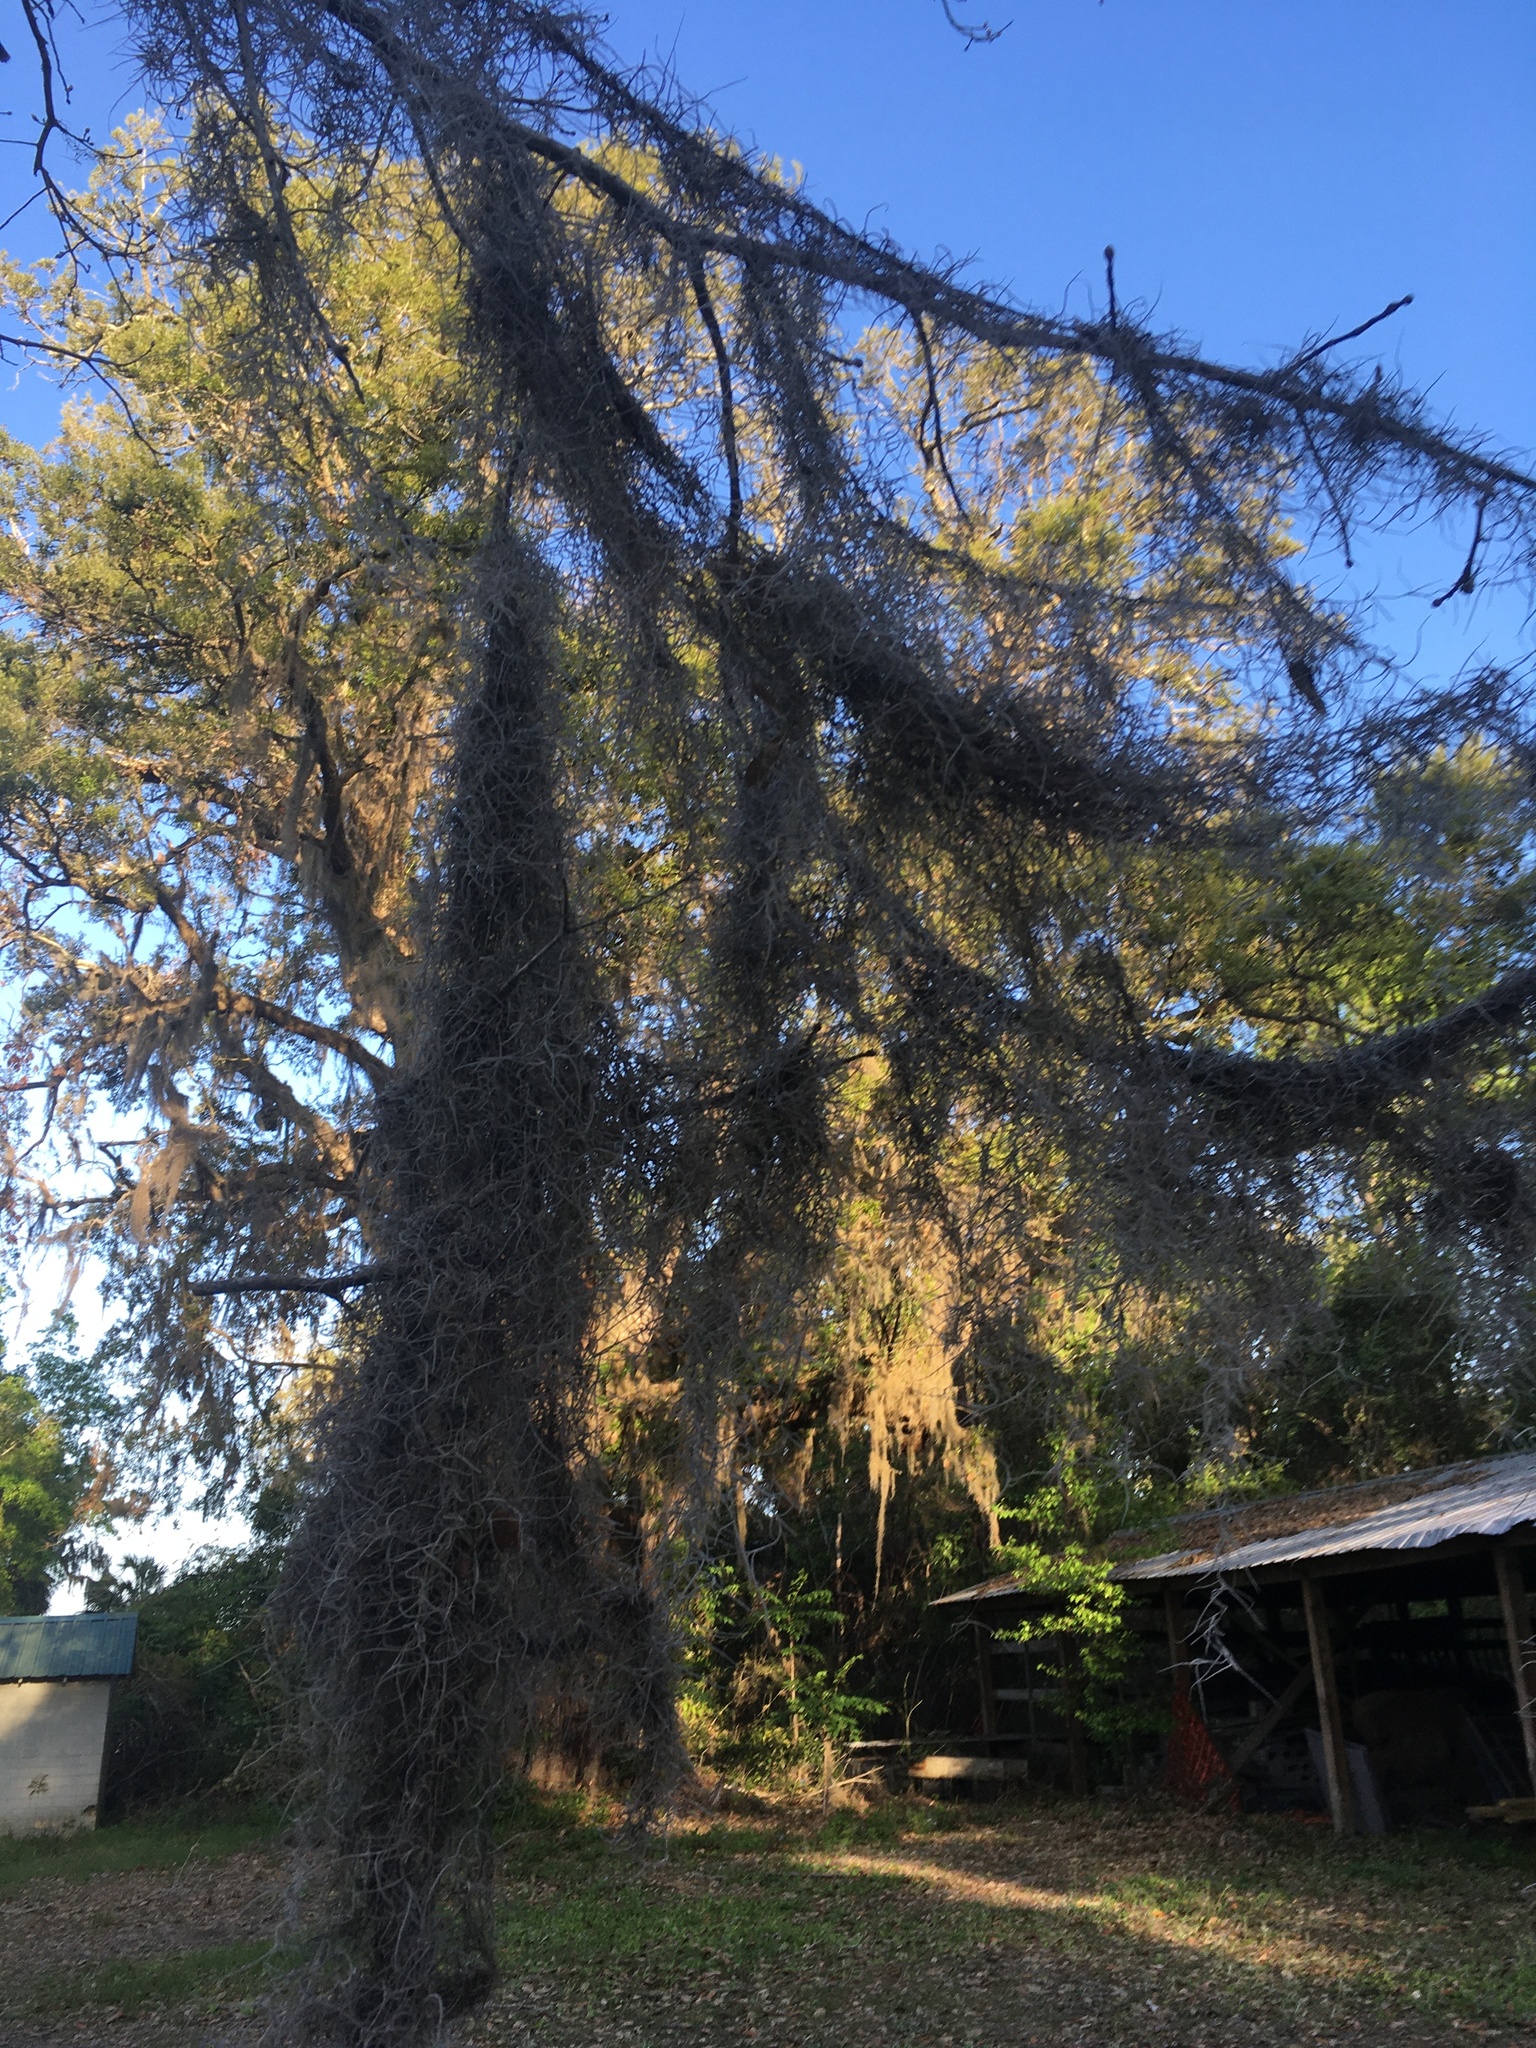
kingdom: Plantae
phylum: Tracheophyta
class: Liliopsida
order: Poales
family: Bromeliaceae
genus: Tillandsia
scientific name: Tillandsia usneoides
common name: Spanish moss
